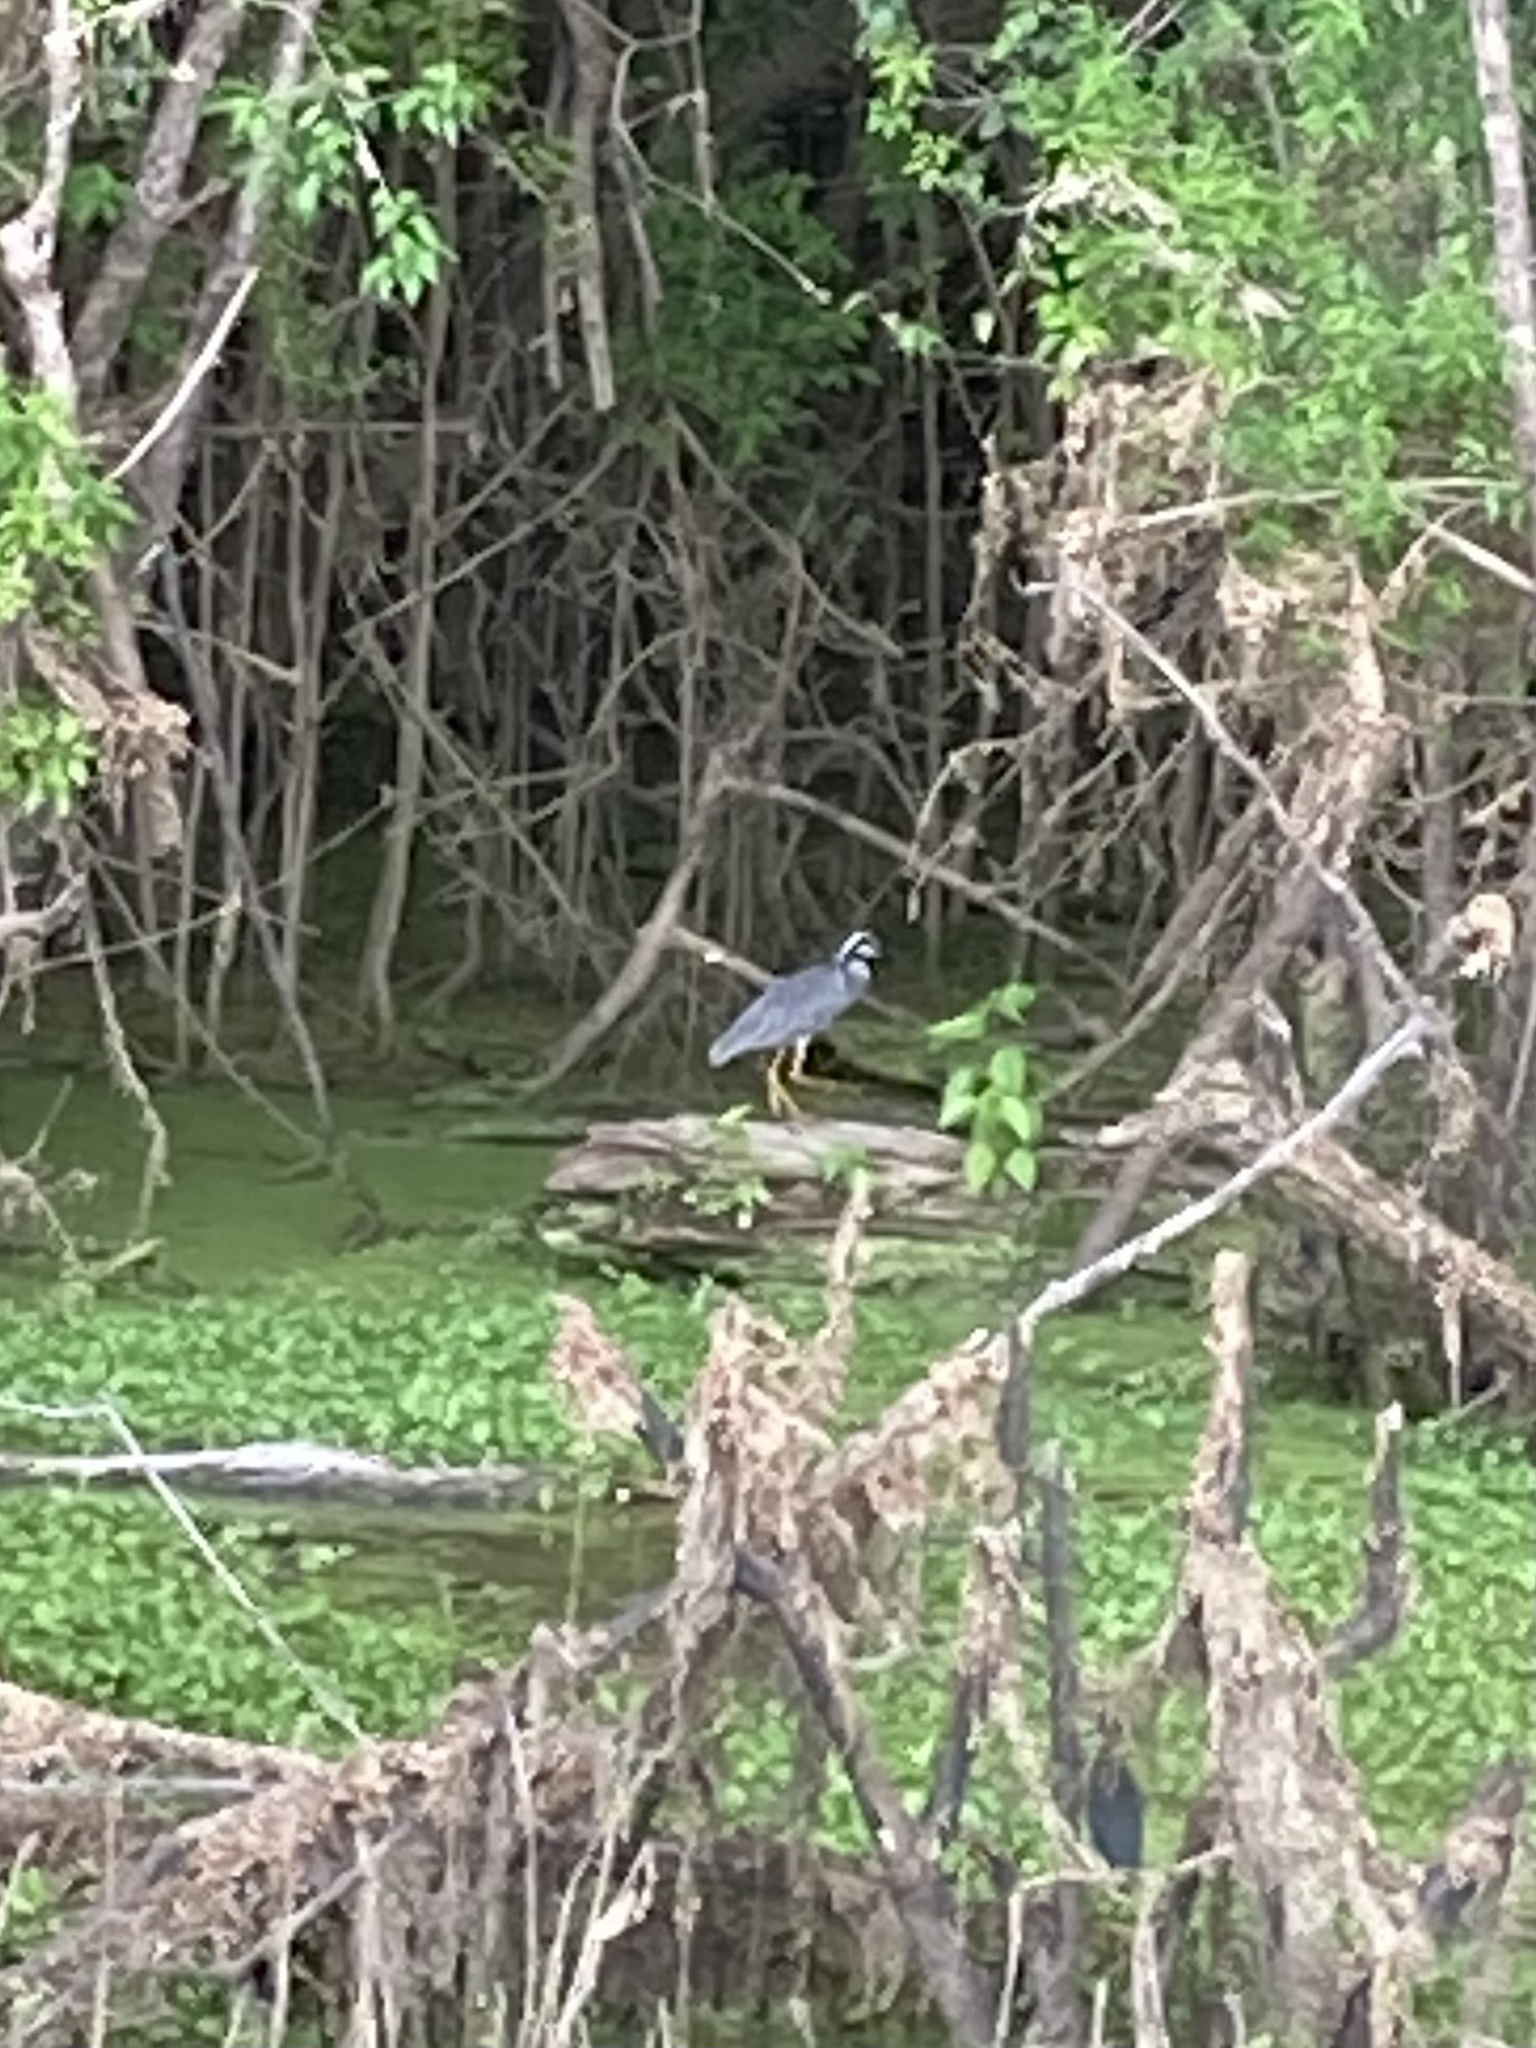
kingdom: Animalia
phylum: Chordata
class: Aves
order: Pelecaniformes
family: Ardeidae
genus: Nyctanassa
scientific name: Nyctanassa violacea
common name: Yellow-crowned night heron
